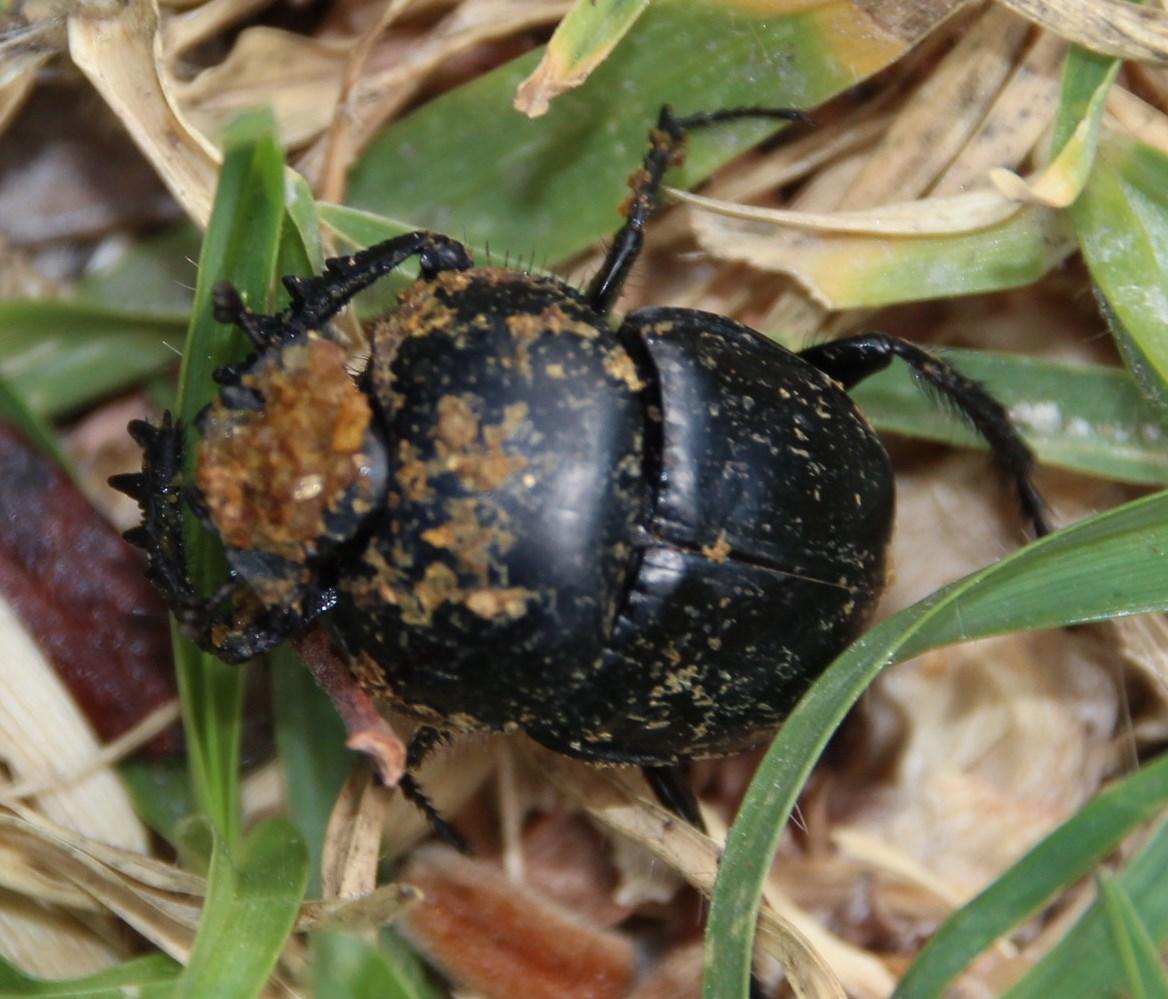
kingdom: Animalia
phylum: Arthropoda
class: Insecta
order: Coleoptera
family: Scarabaeidae
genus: Scarabaeus
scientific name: Scarabaeus convexus
